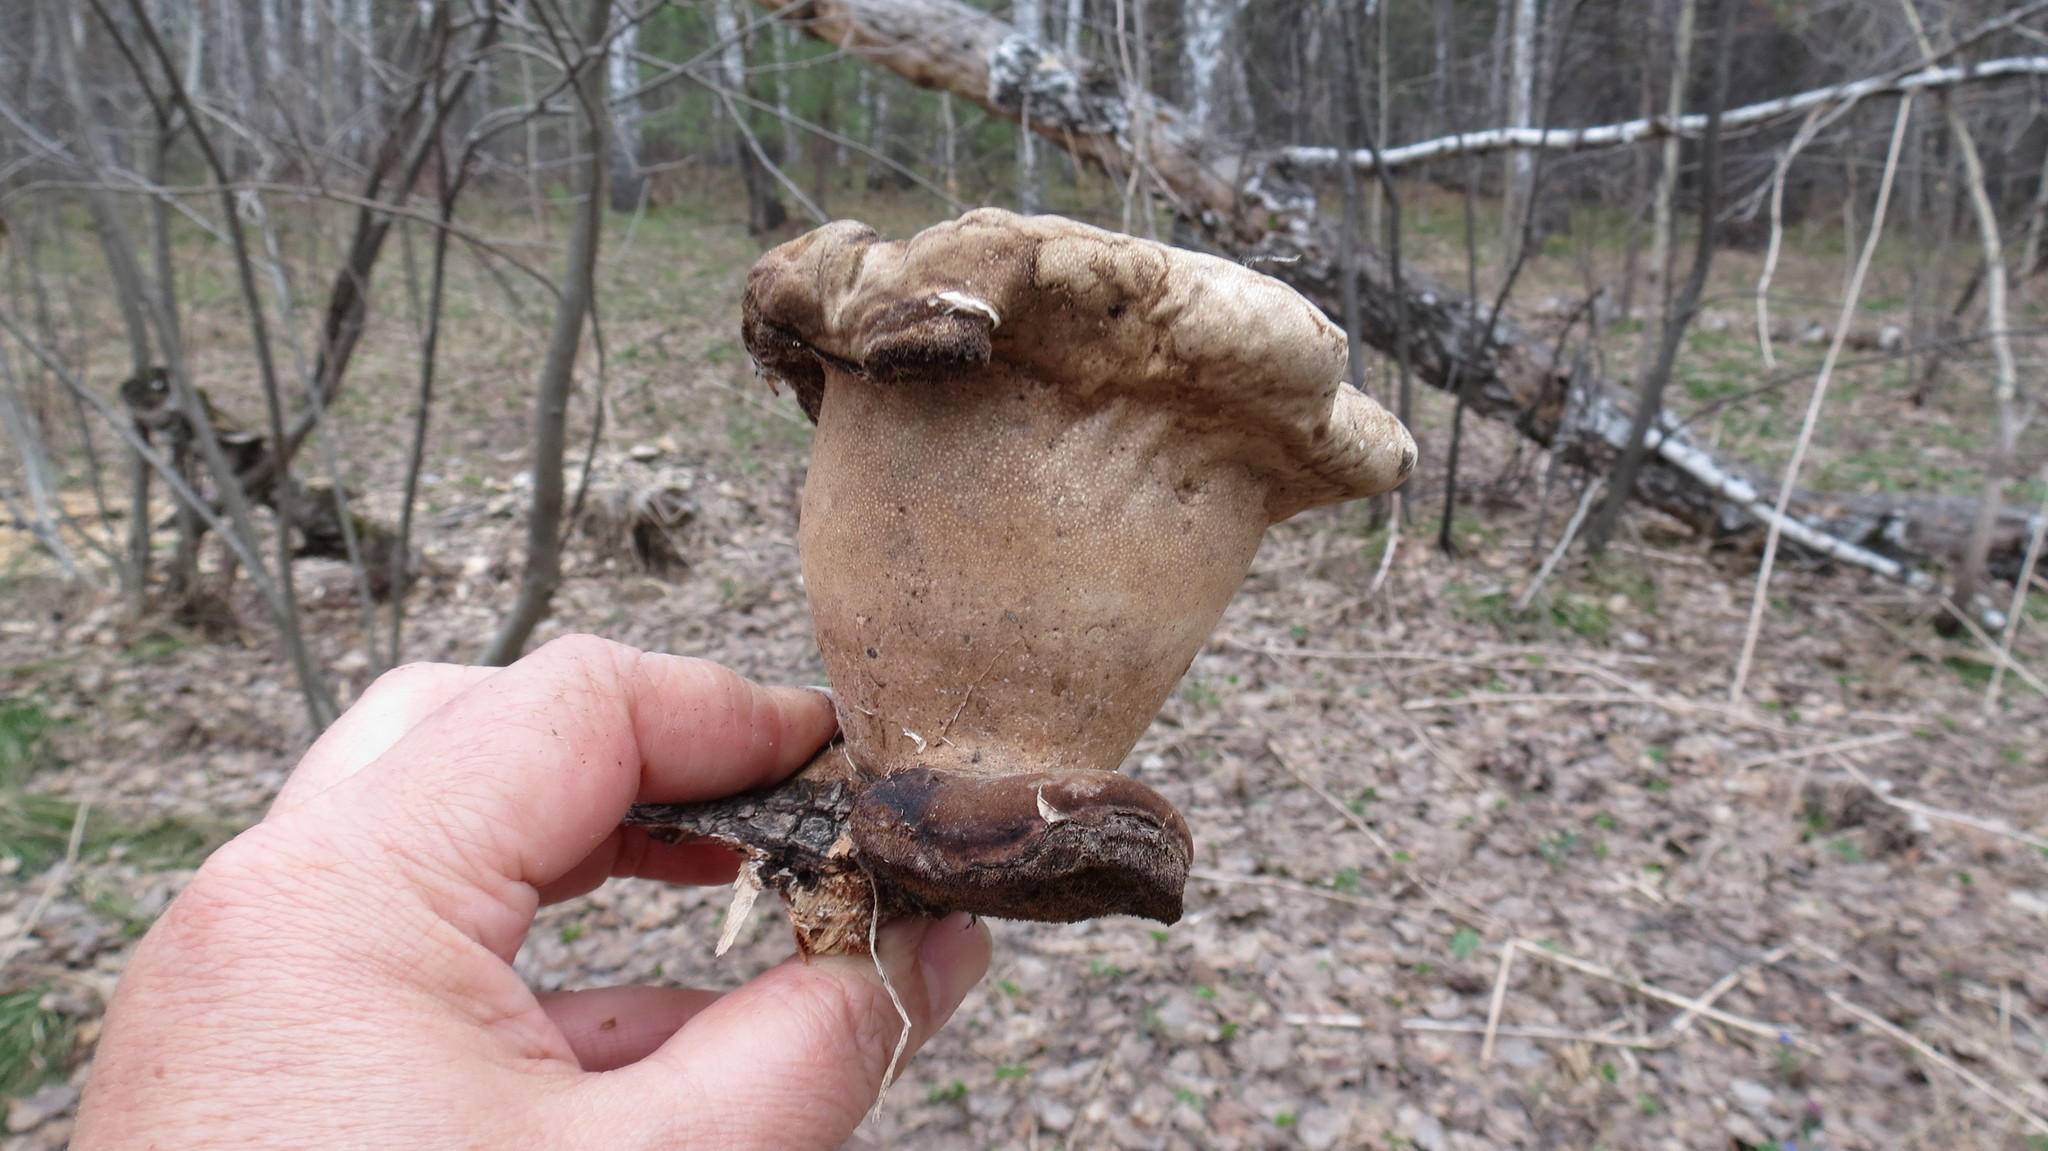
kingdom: Fungi
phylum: Basidiomycota
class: Agaricomycetes
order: Polyporales
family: Fomitopsidaceae
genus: Fomitopsis
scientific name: Fomitopsis betulina
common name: Birch polypore
